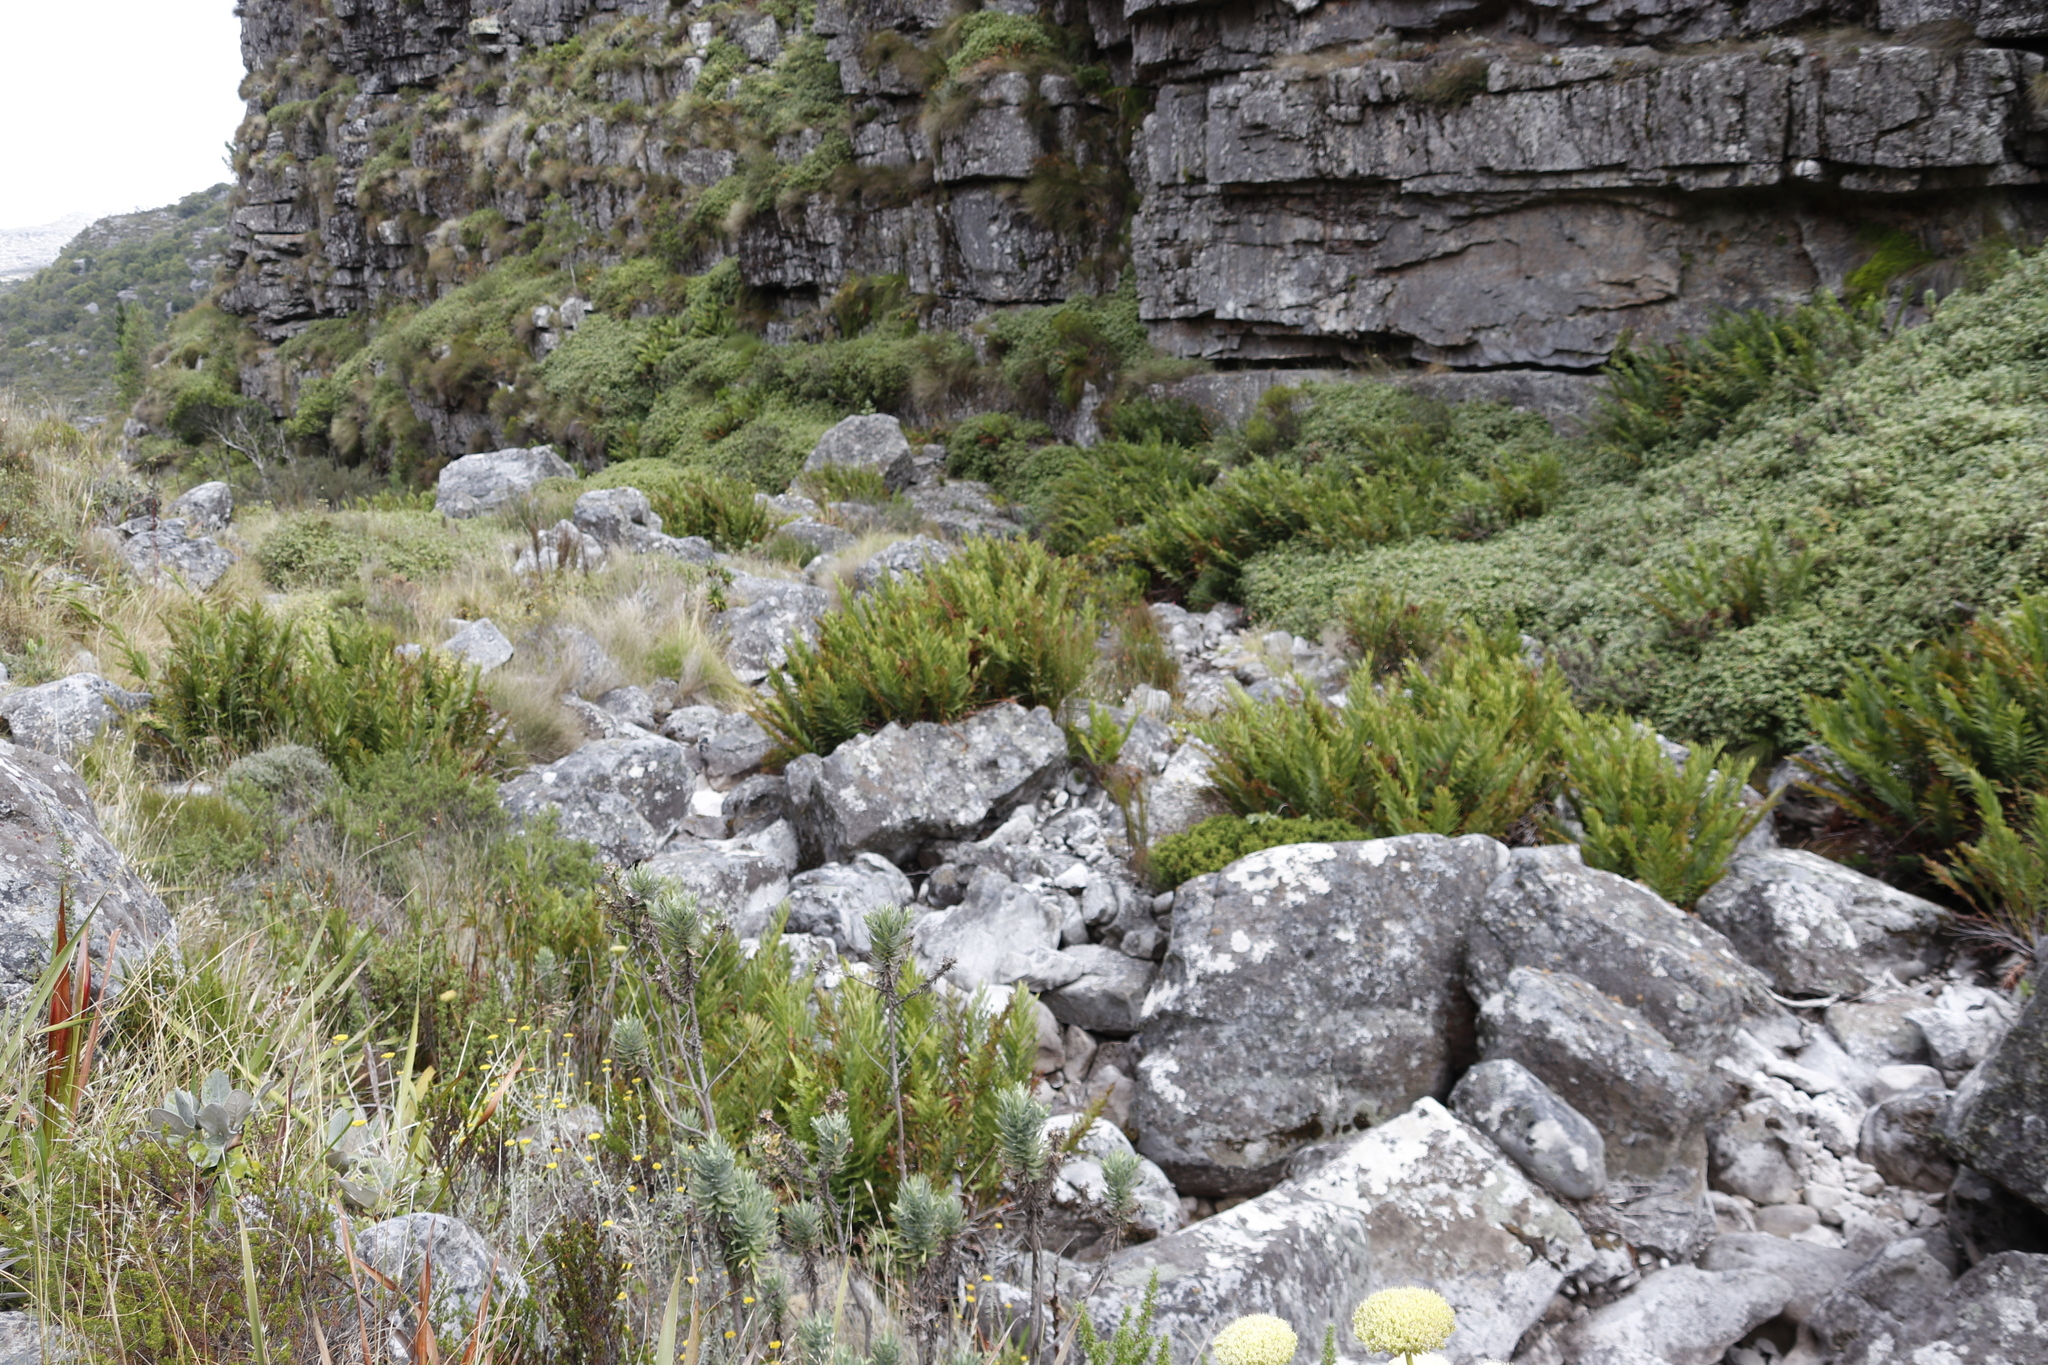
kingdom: Plantae
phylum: Tracheophyta
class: Polypodiopsida
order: Osmundales
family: Osmundaceae
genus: Todea
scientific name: Todea barbara
